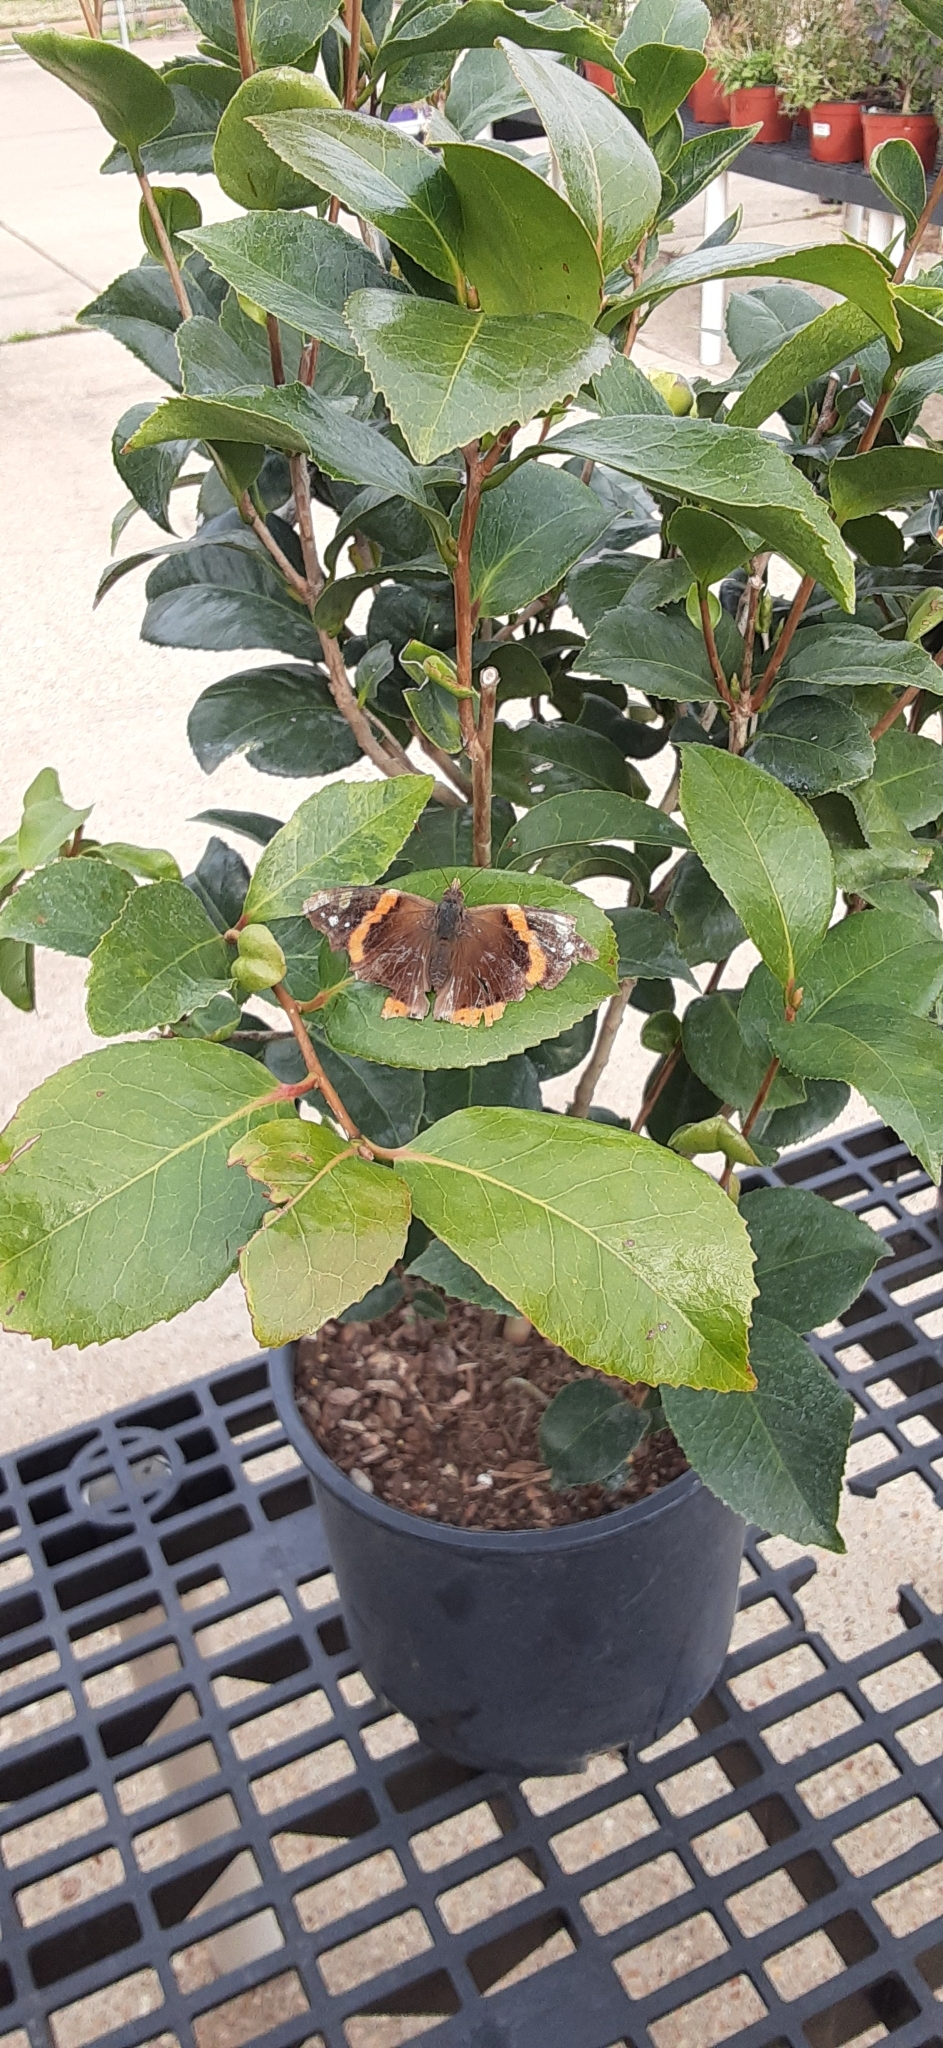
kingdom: Animalia
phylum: Arthropoda
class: Insecta
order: Lepidoptera
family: Nymphalidae
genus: Vanessa
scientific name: Vanessa atalanta
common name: Red admiral
